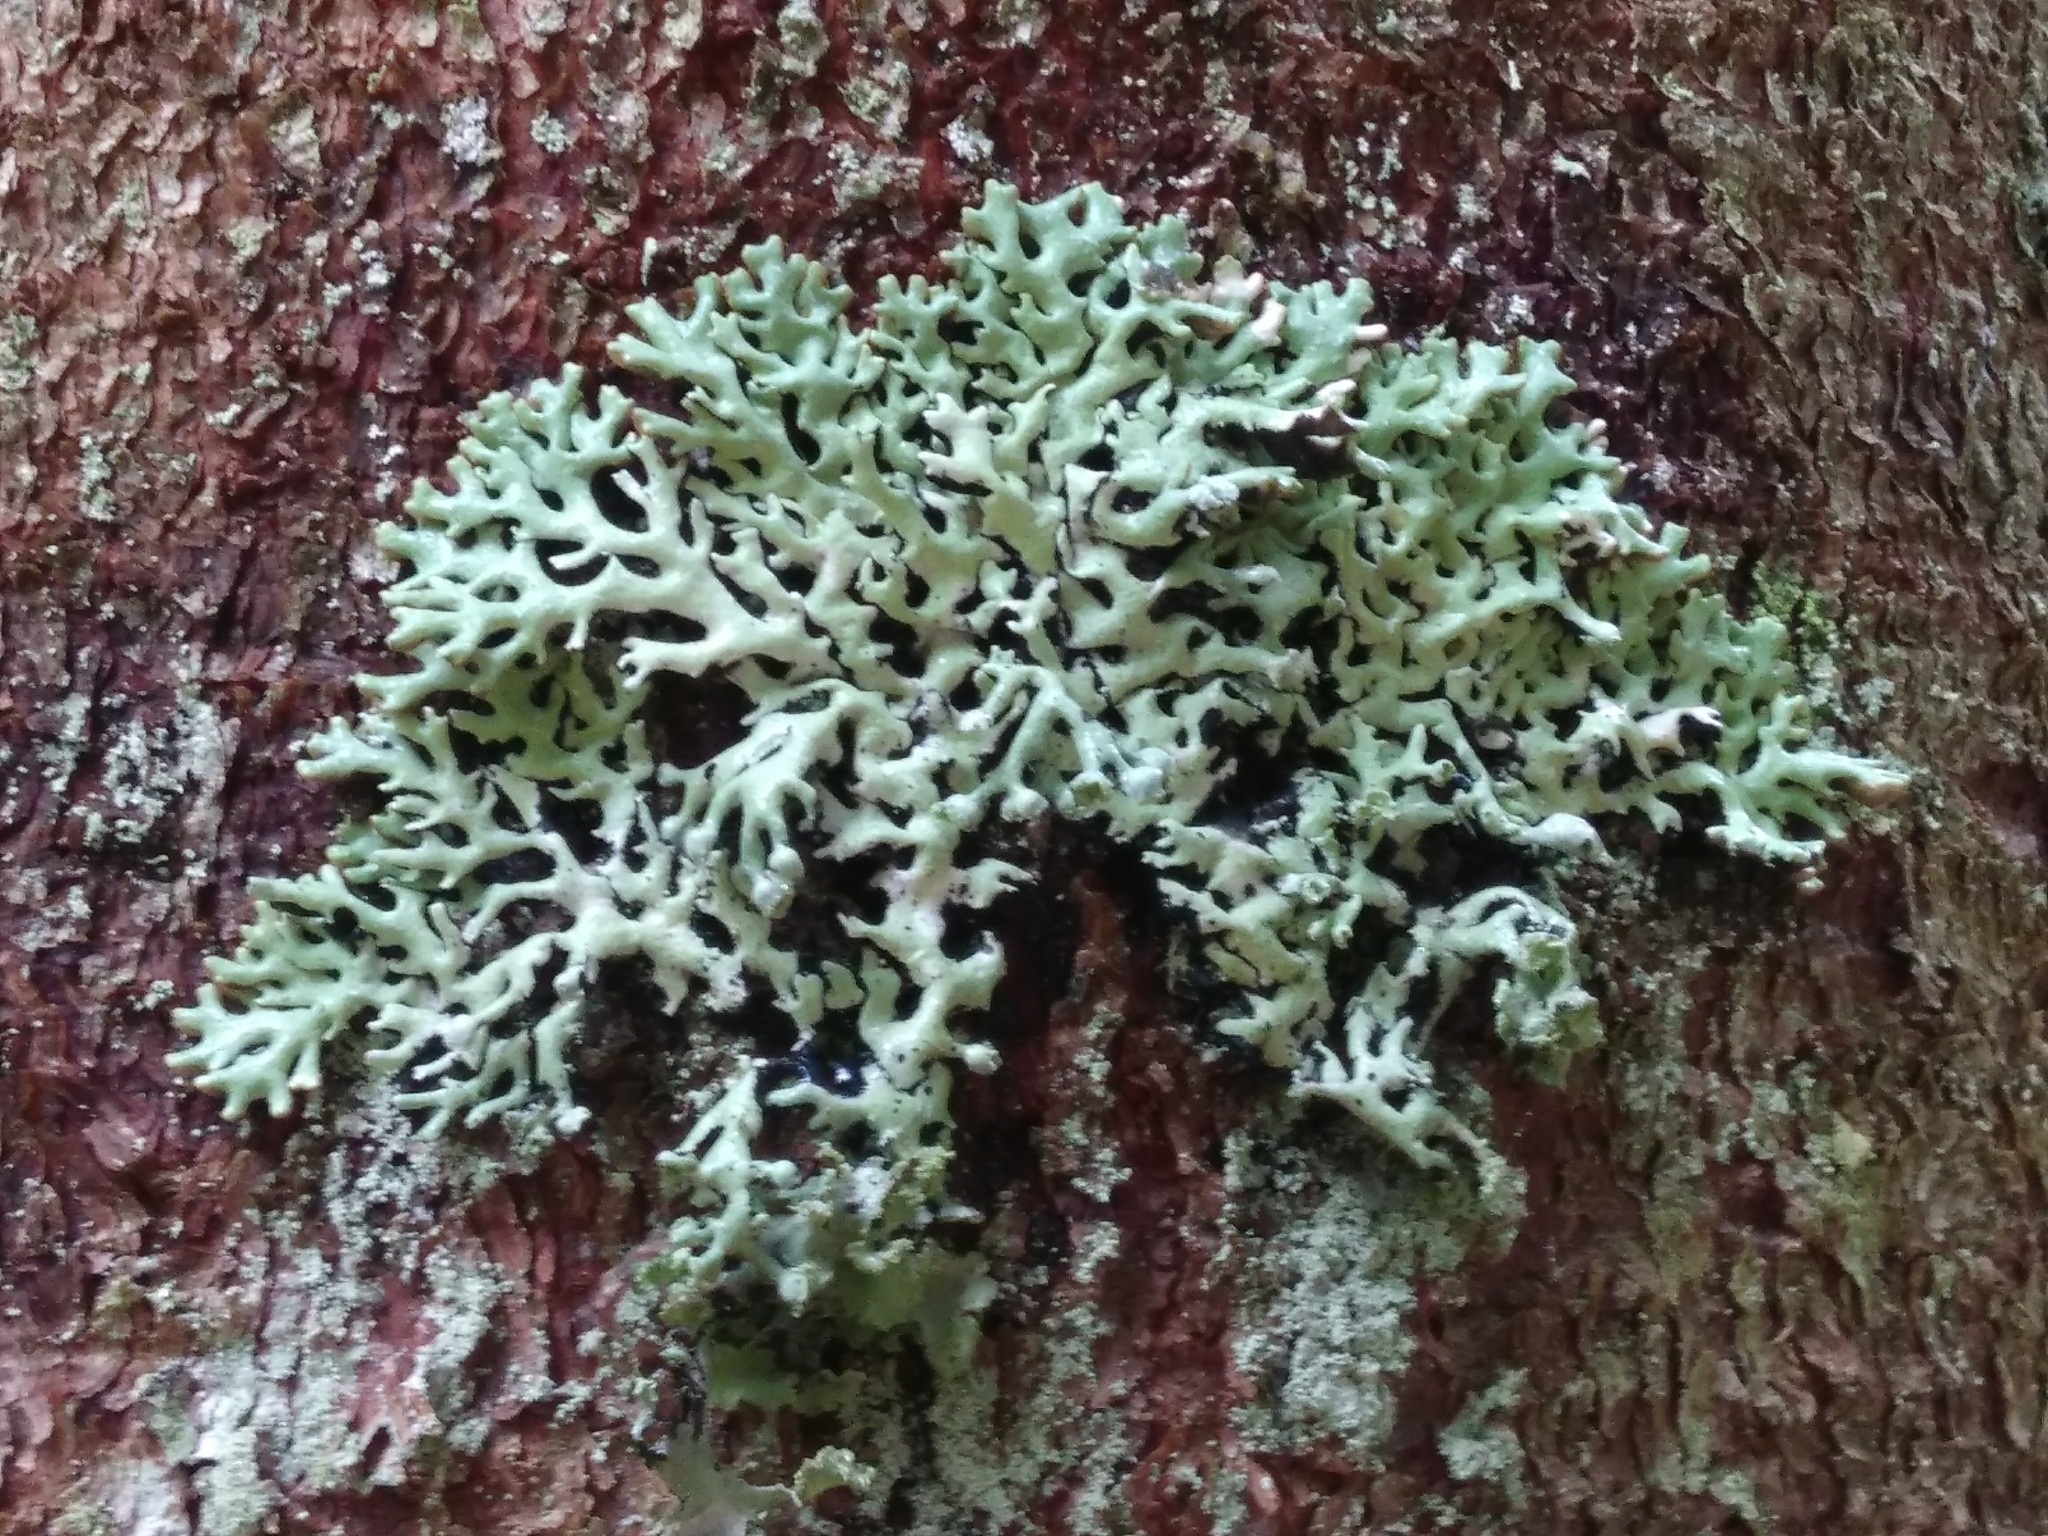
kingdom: Fungi
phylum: Ascomycota
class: Lecanoromycetes
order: Lecanorales
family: Parmeliaceae
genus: Hypogymnia
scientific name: Hypogymnia physodes
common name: Dark crottle
